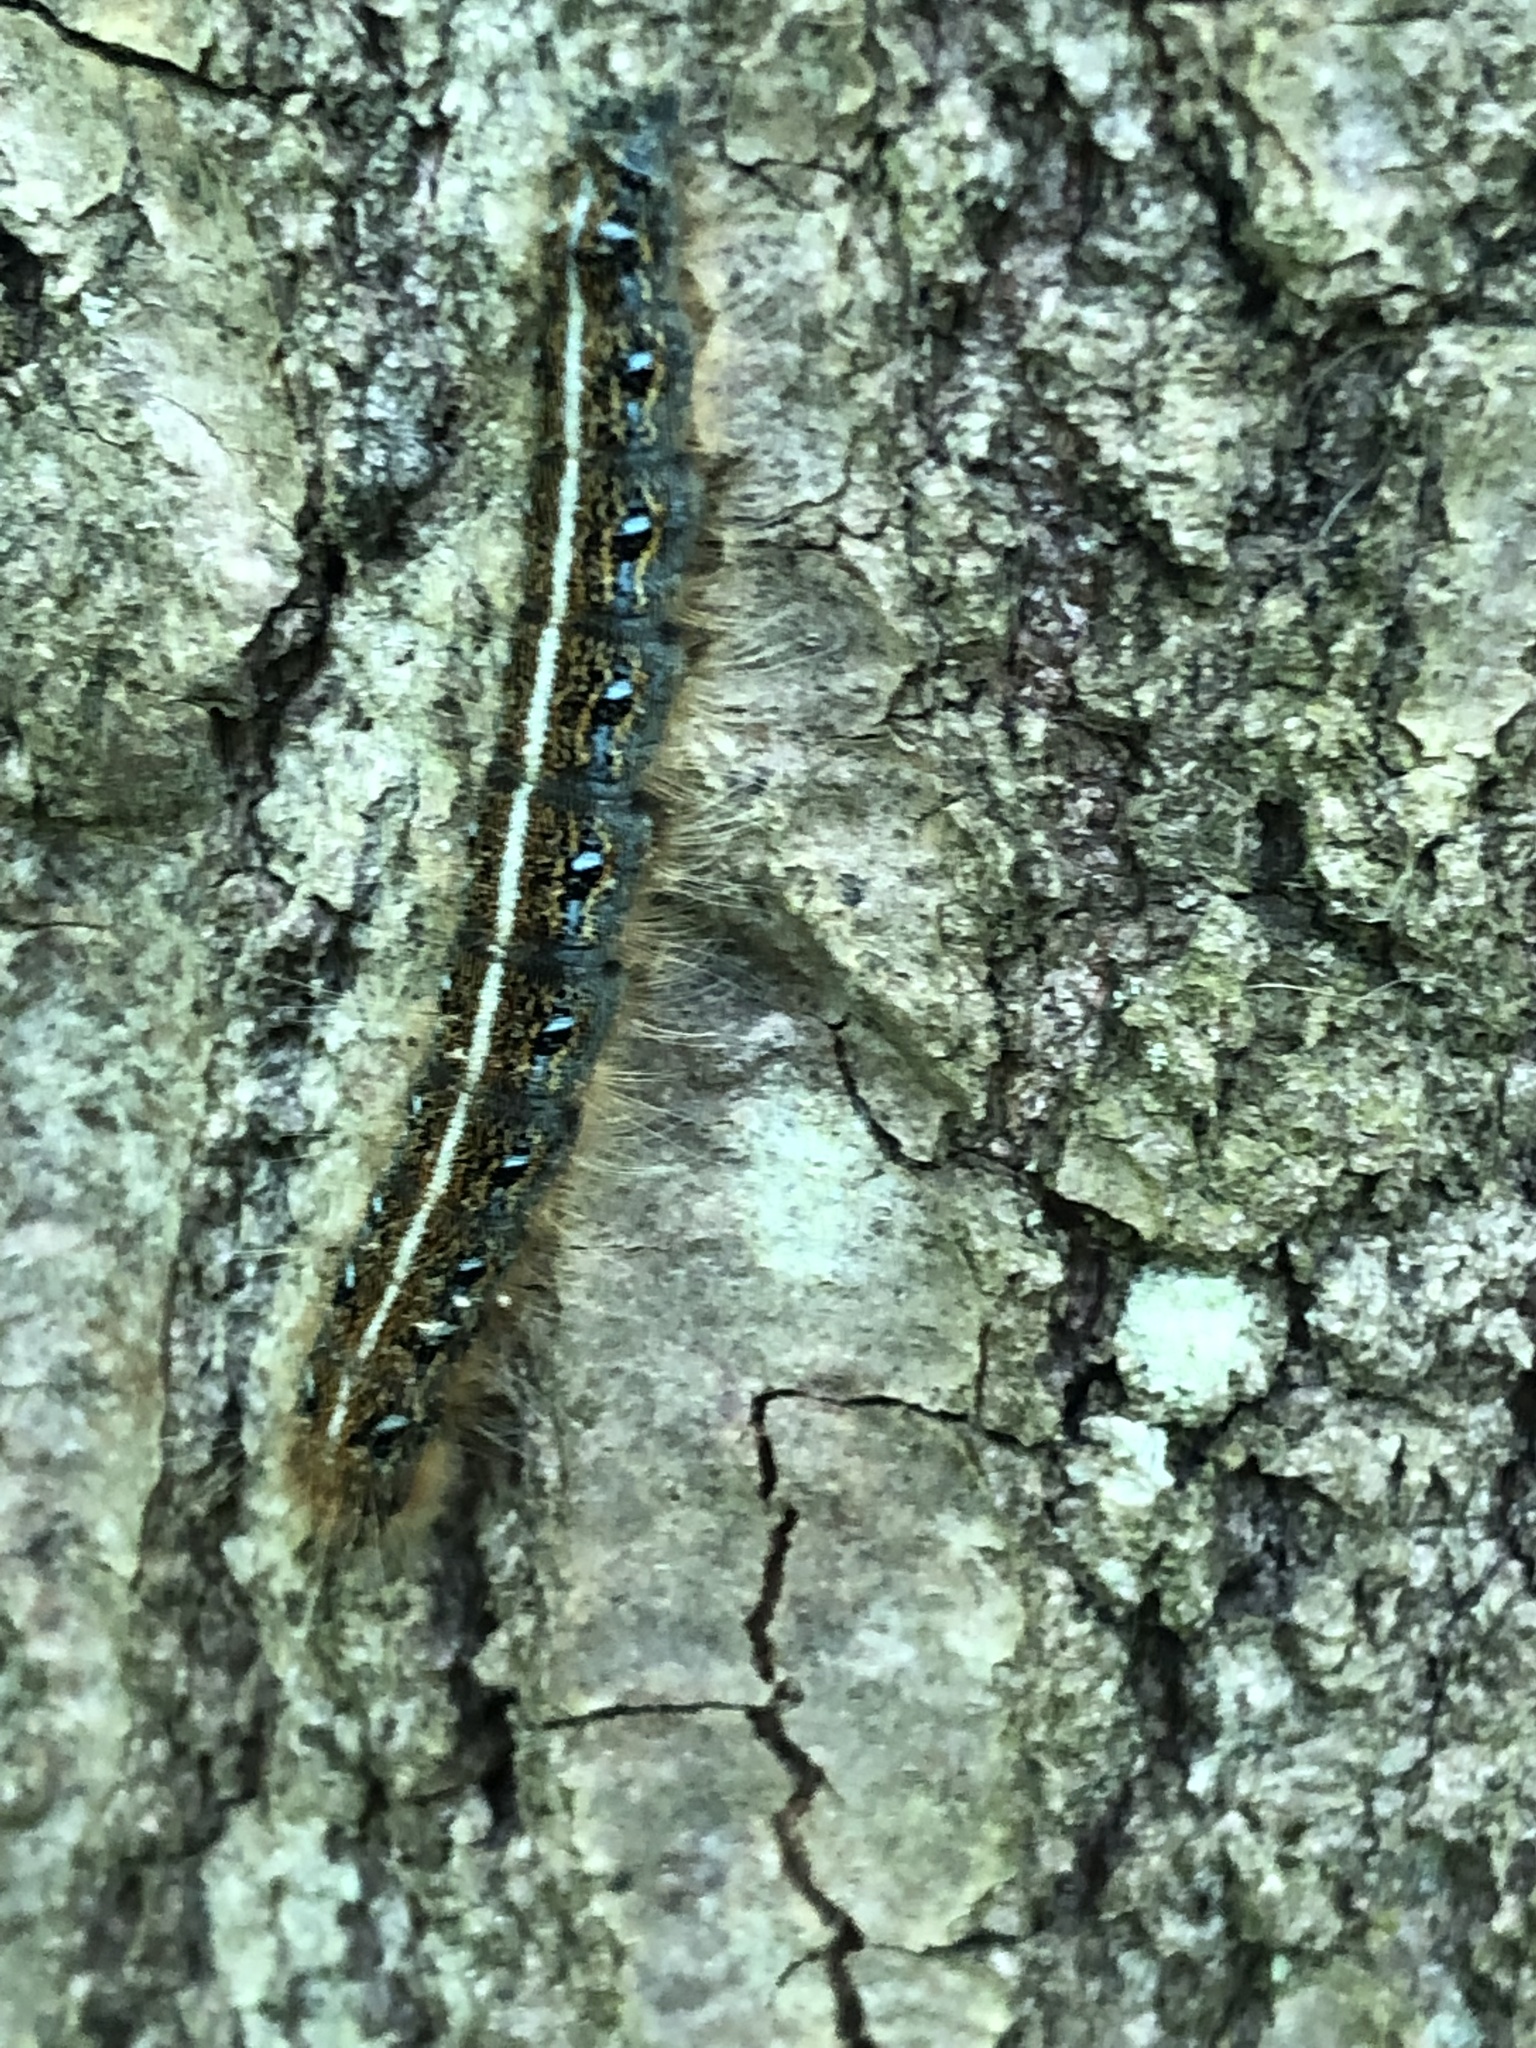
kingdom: Animalia
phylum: Arthropoda
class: Insecta
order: Lepidoptera
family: Lasiocampidae
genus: Malacosoma
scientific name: Malacosoma americana
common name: Eastern tent caterpillar moth
